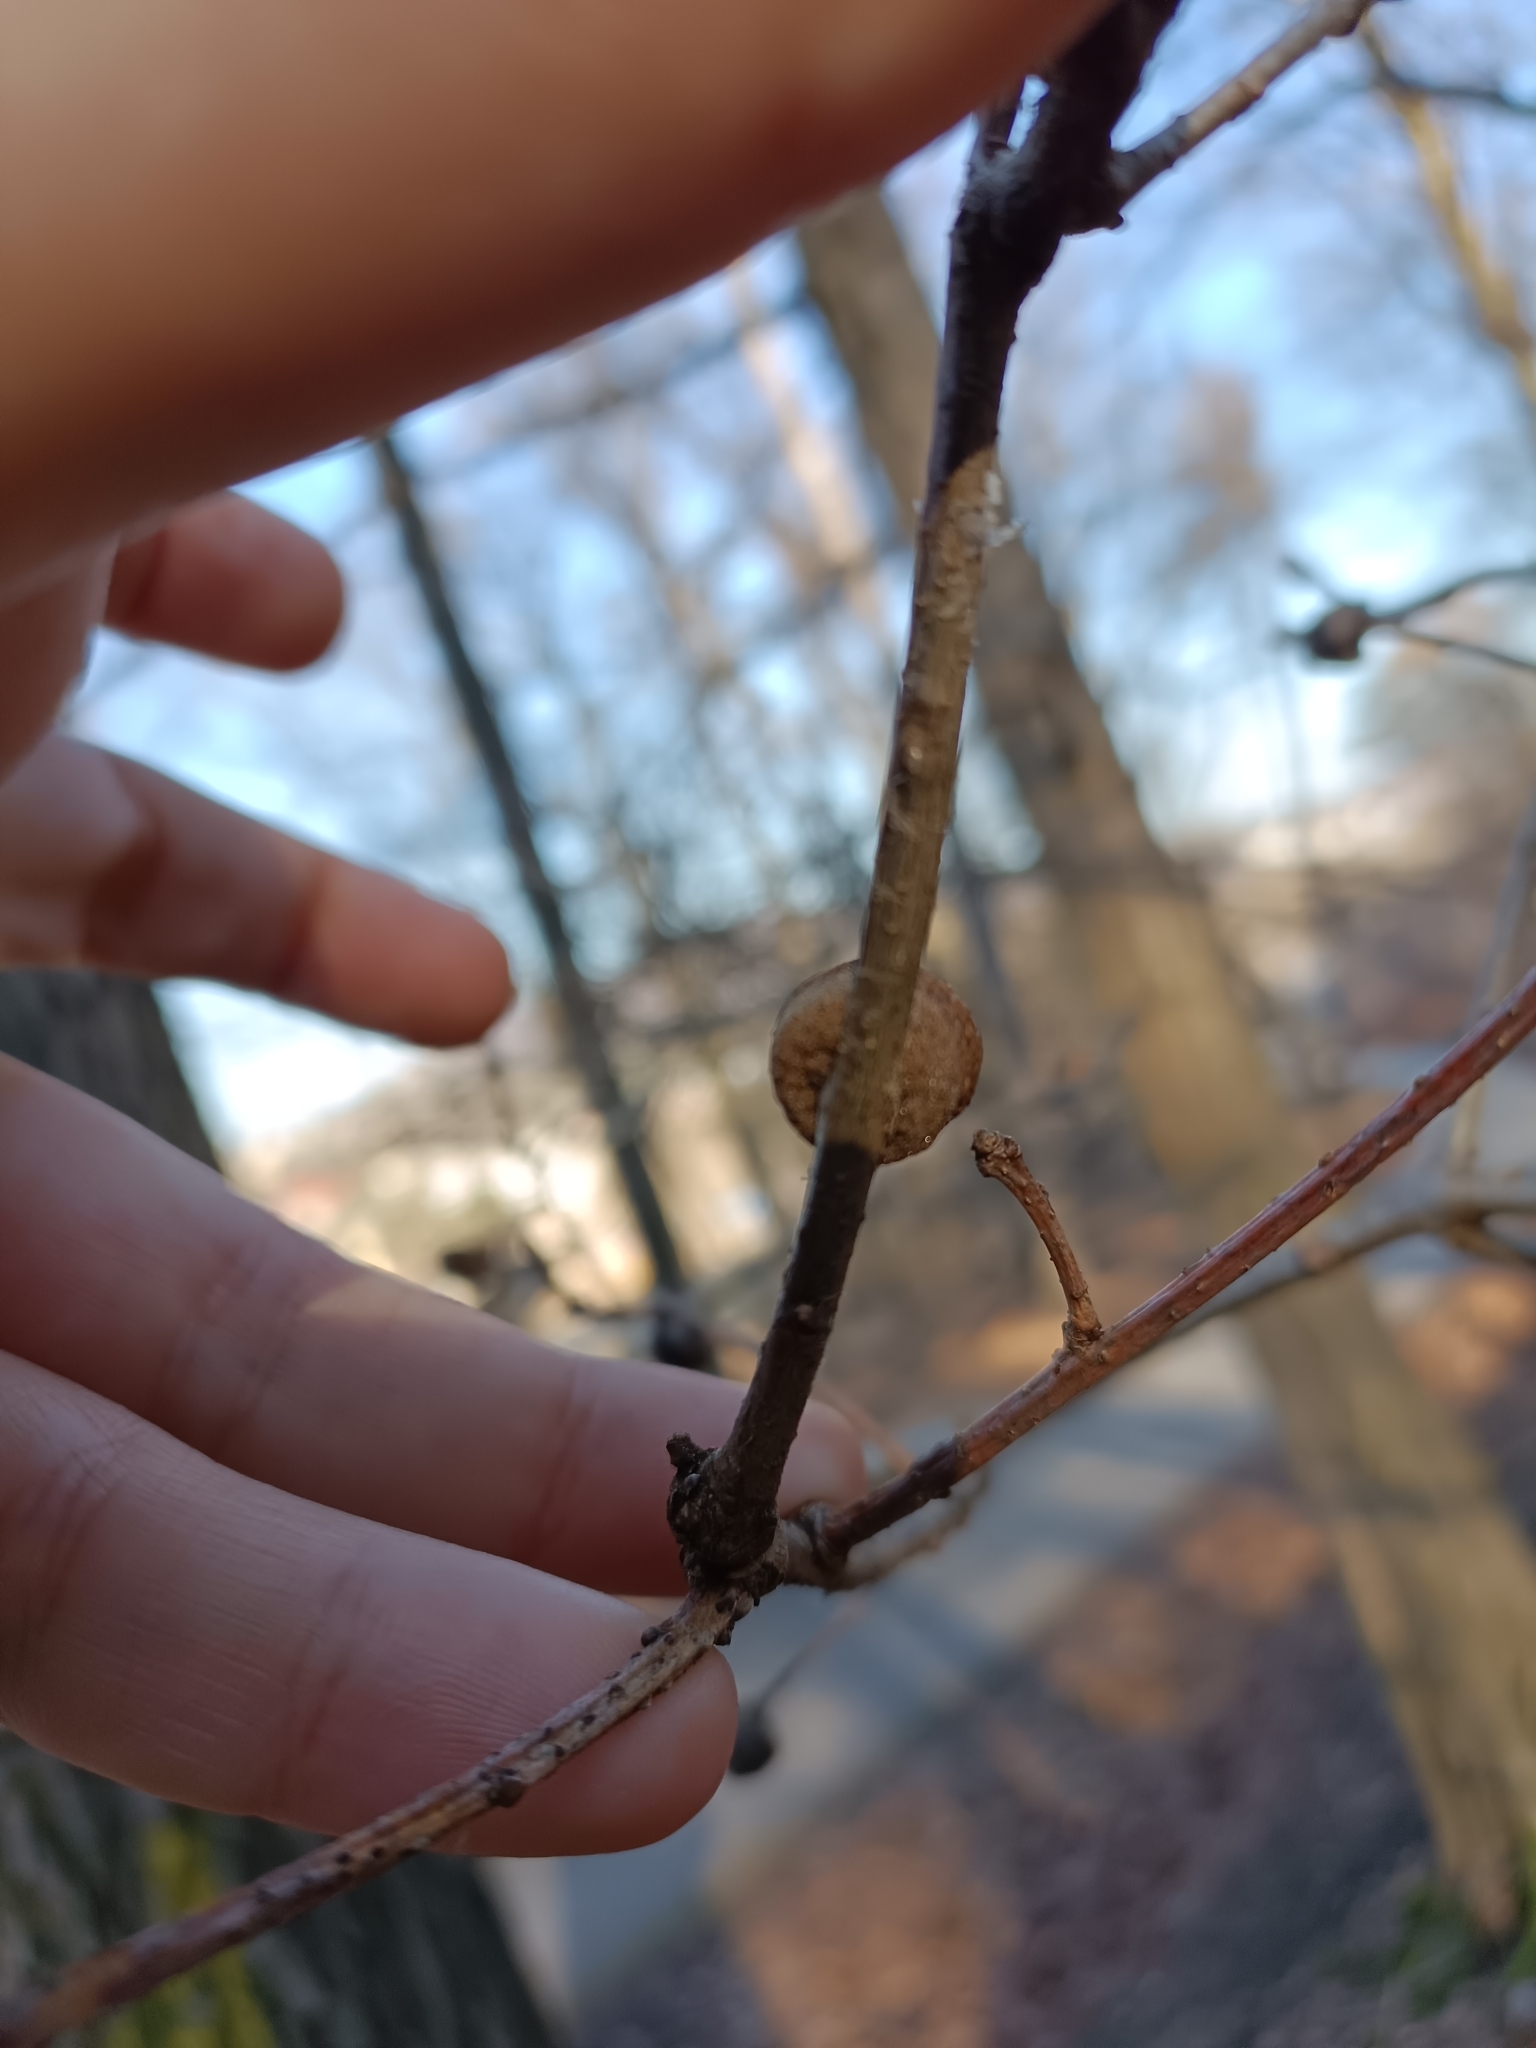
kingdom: Animalia
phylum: Arthropoda
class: Insecta
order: Hymenoptera
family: Cynipidae
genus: Andricus
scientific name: Andricus conificus
